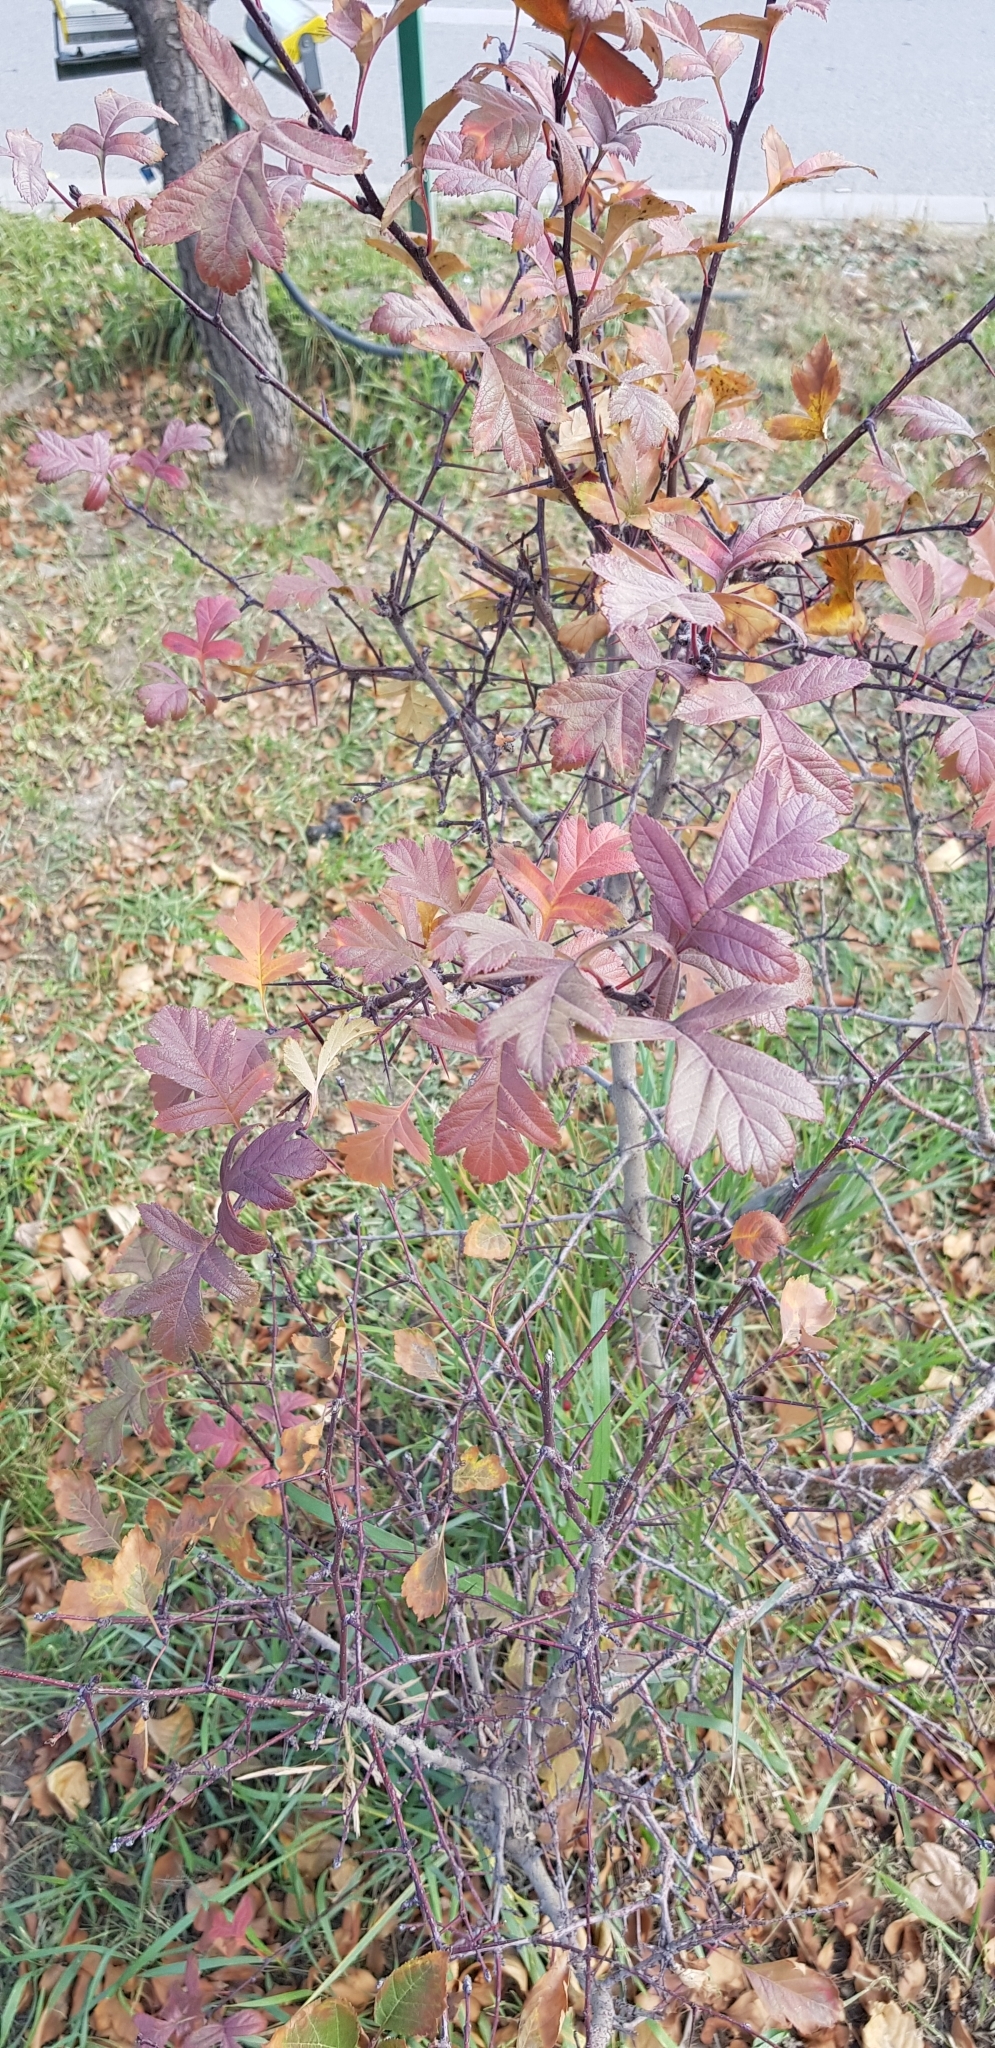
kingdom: Plantae
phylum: Tracheophyta
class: Magnoliopsida
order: Rosales
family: Rosaceae
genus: Crataegus
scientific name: Crataegus sanguinea
